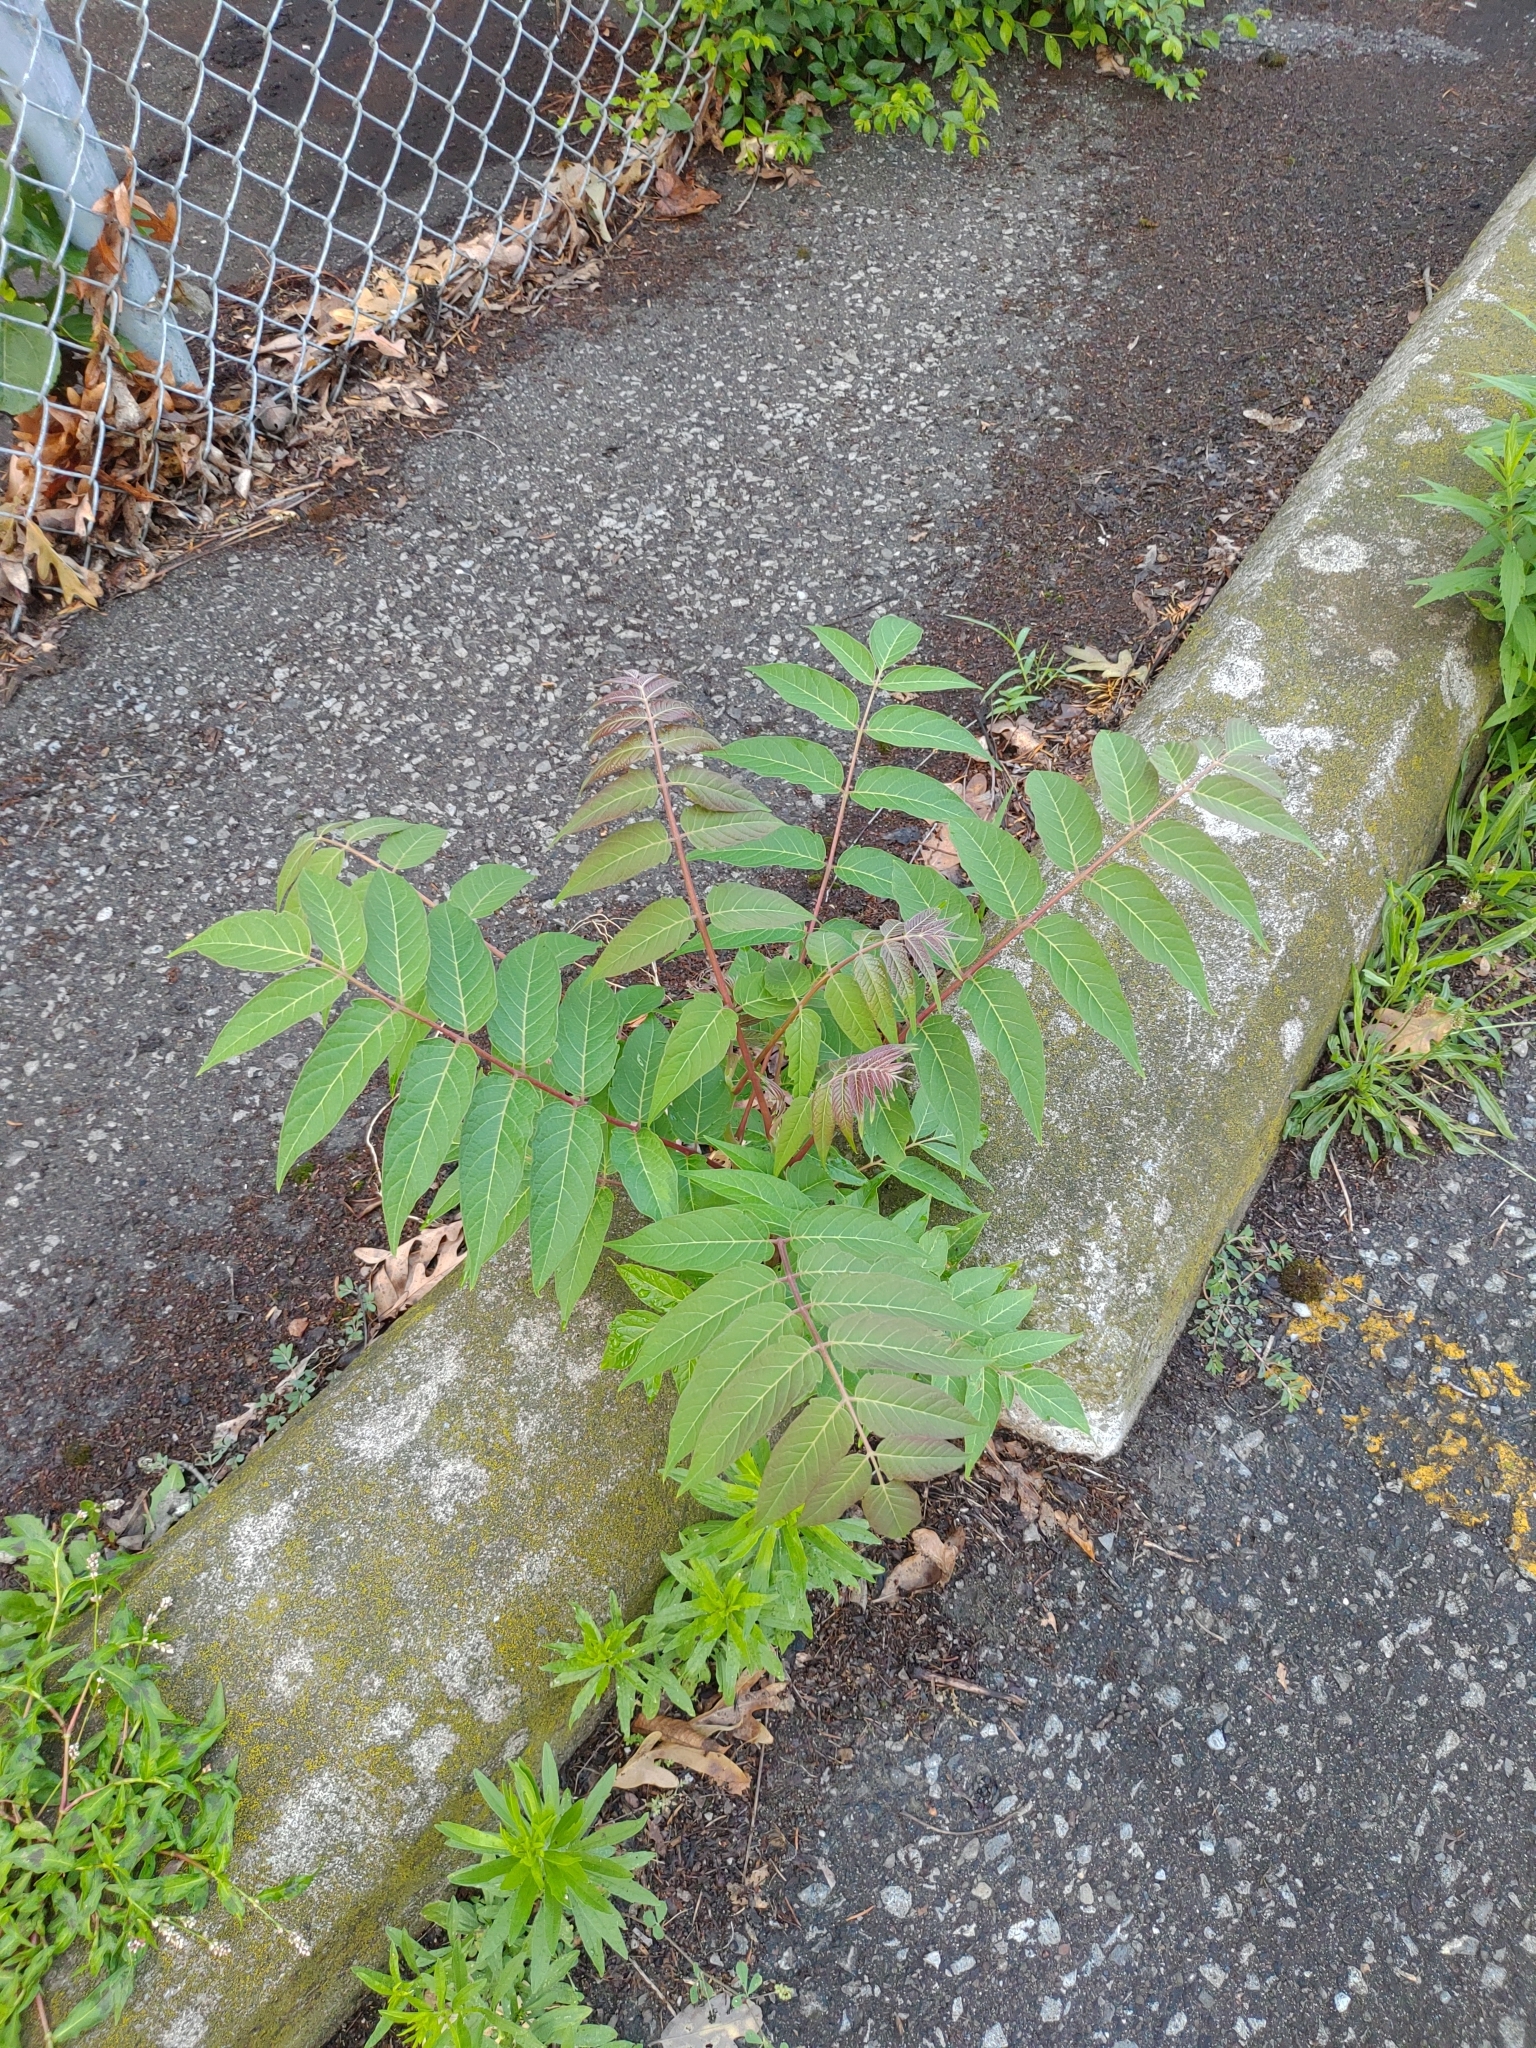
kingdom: Plantae
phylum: Tracheophyta
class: Magnoliopsida
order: Sapindales
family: Simaroubaceae
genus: Ailanthus
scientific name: Ailanthus altissima
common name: Tree-of-heaven
